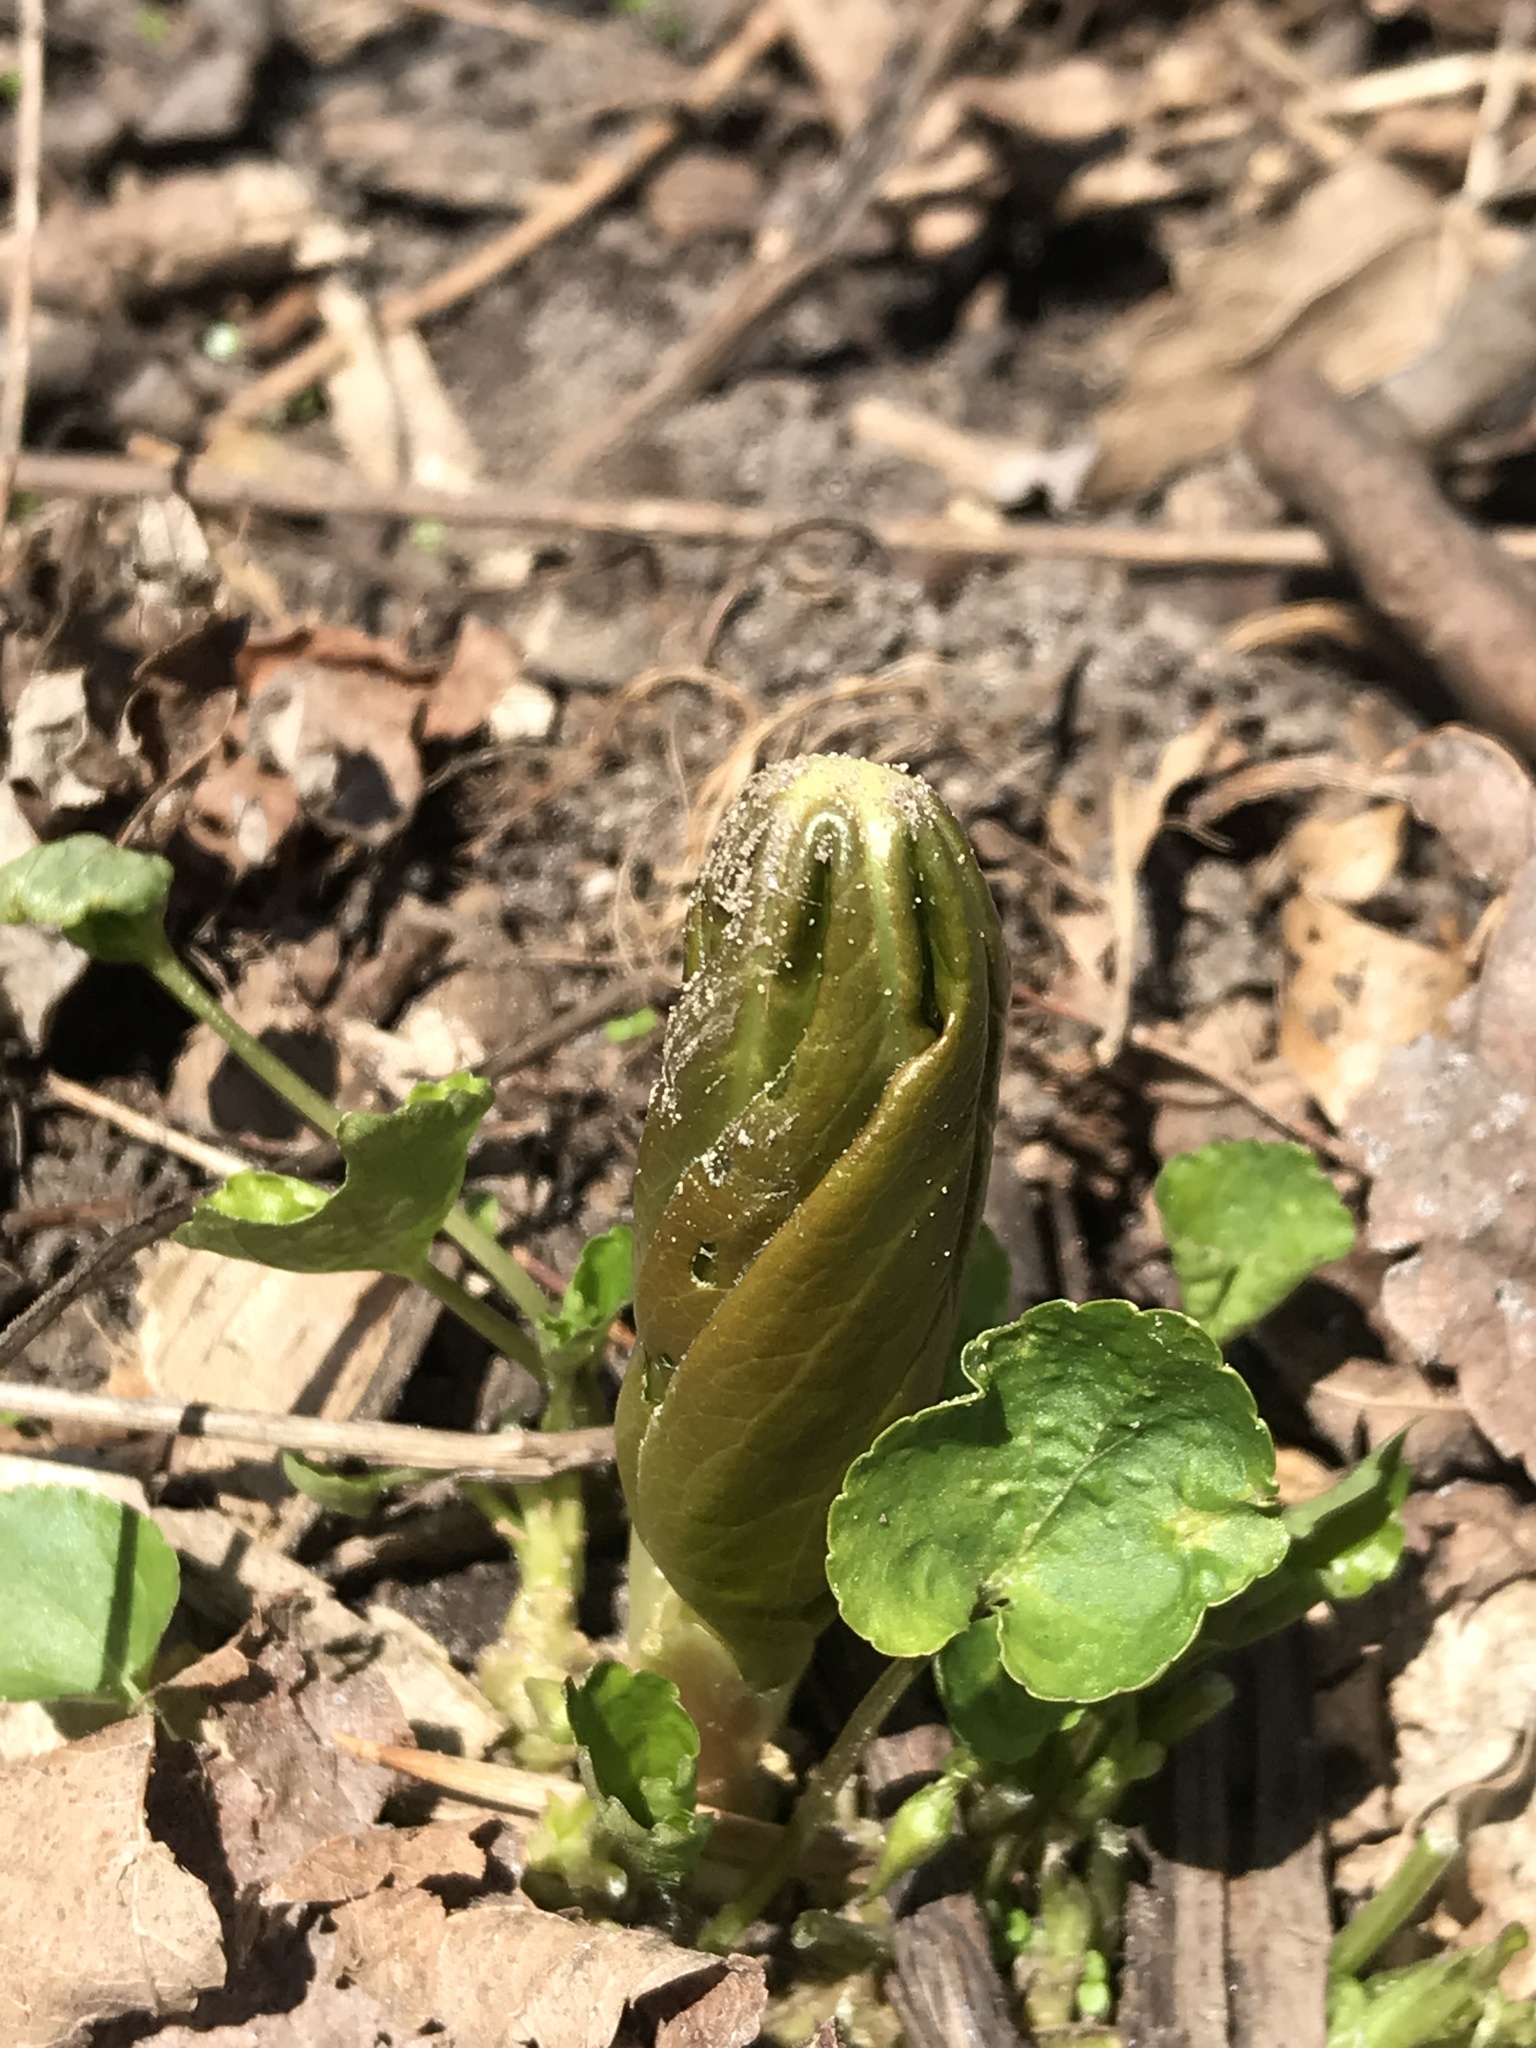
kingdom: Plantae
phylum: Tracheophyta
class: Magnoliopsida
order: Ranunculales
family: Berberidaceae
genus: Podophyllum
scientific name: Podophyllum peltatum
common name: Wild mandrake
